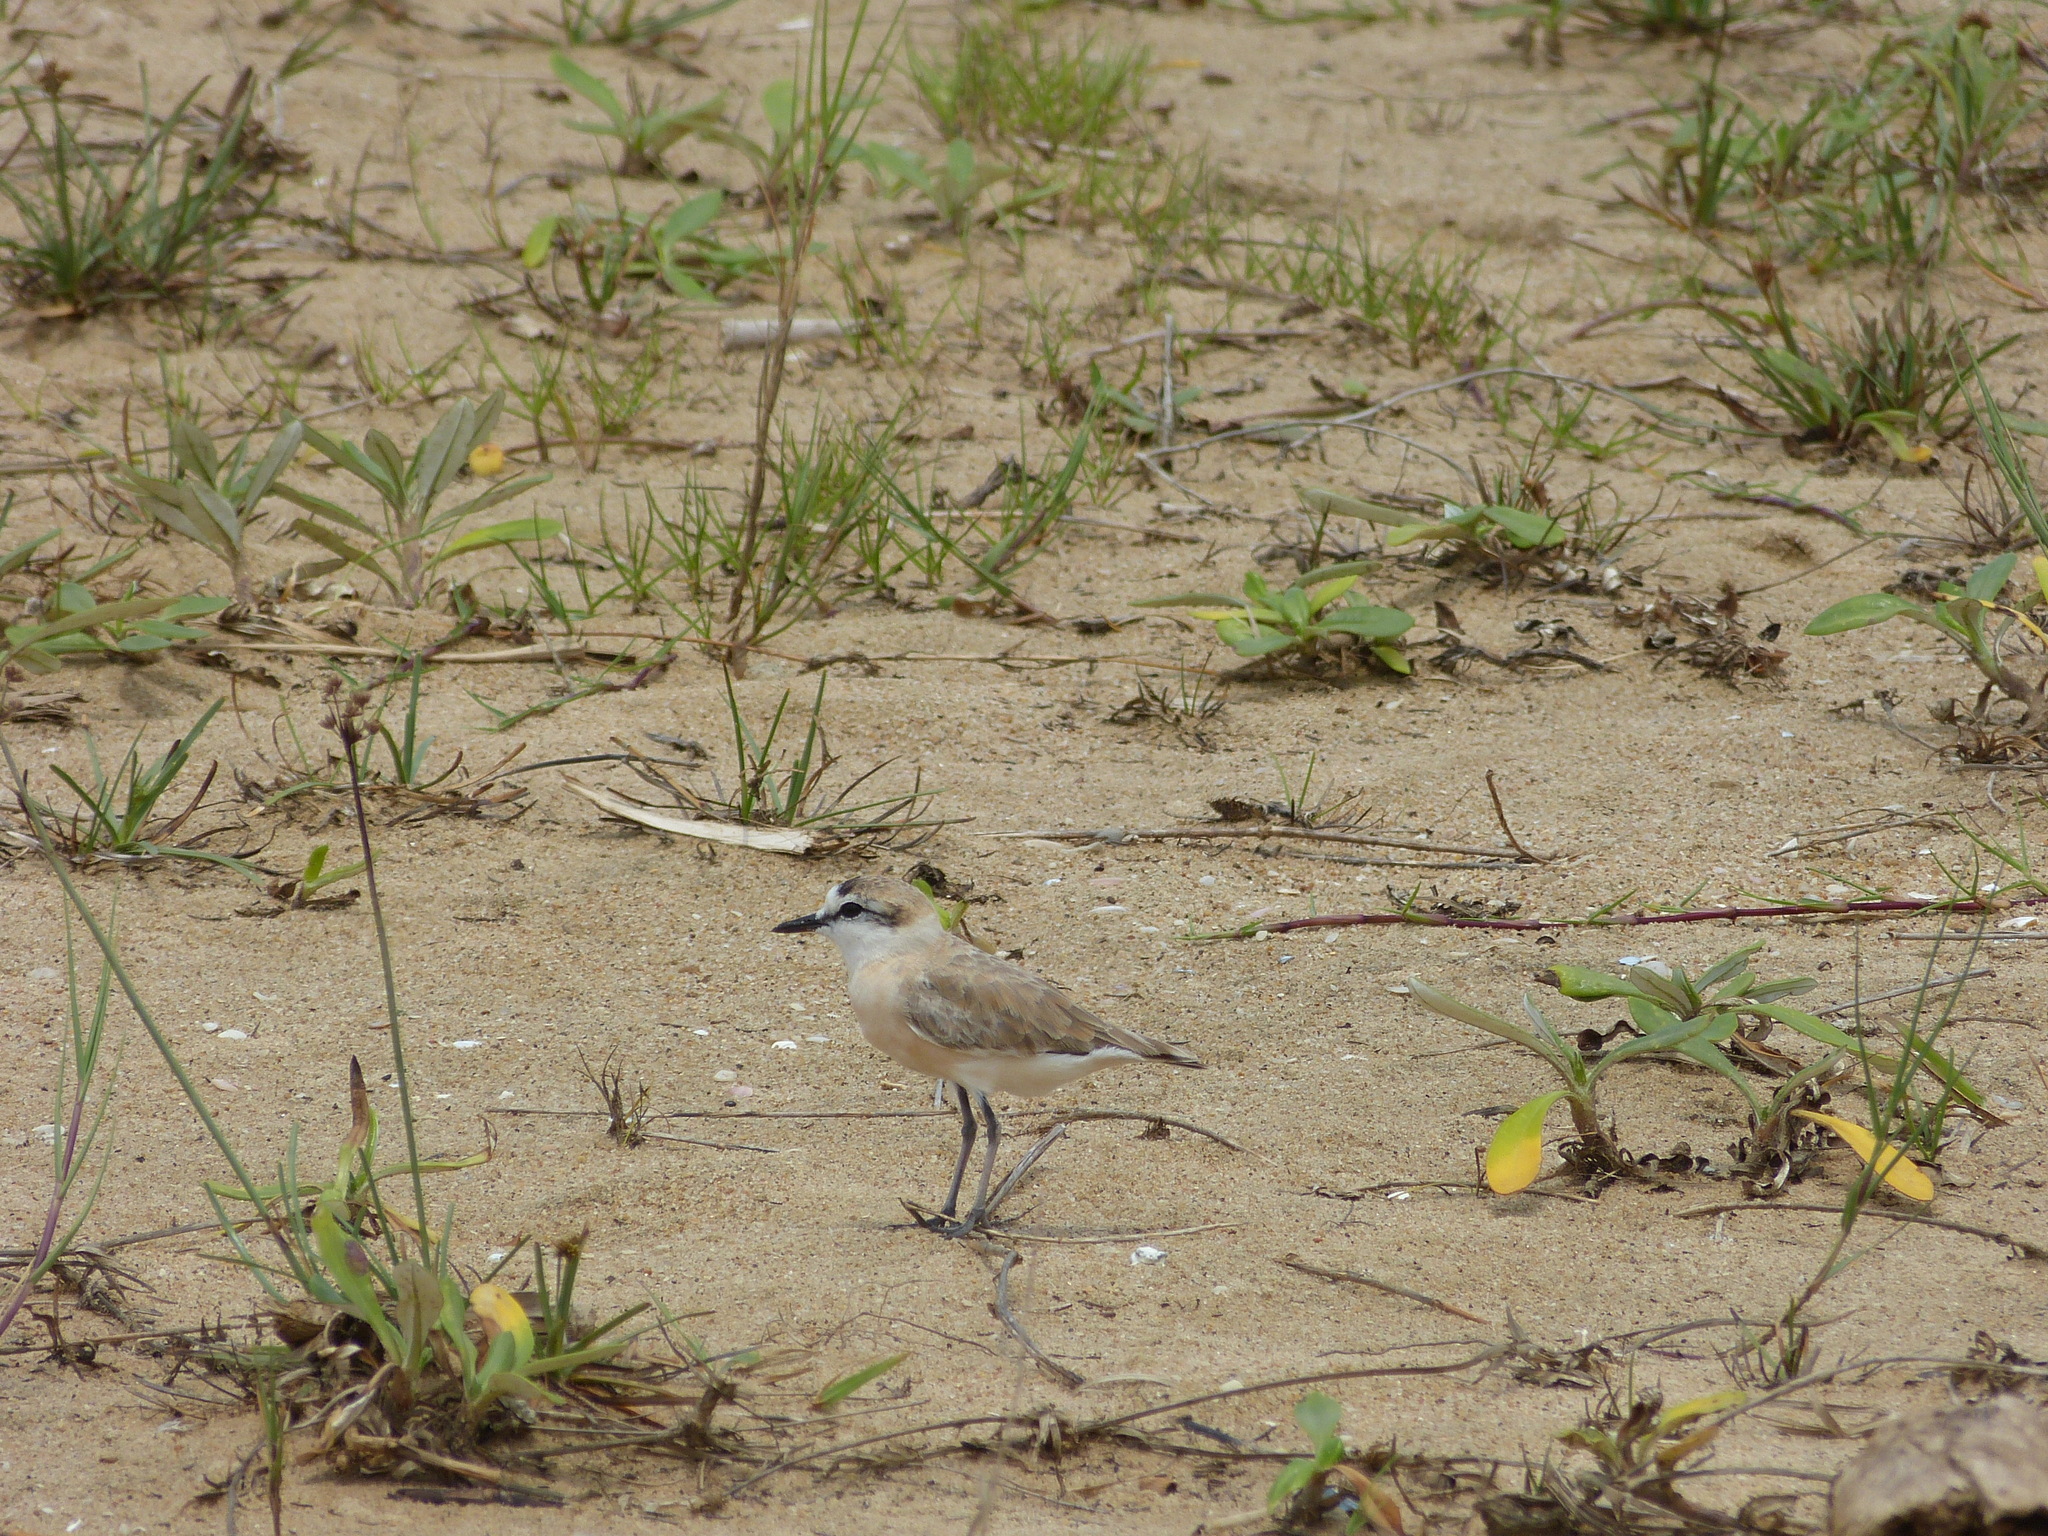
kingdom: Animalia
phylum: Chordata
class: Aves
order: Charadriiformes
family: Charadriidae
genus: Anarhynchus
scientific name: Anarhynchus
